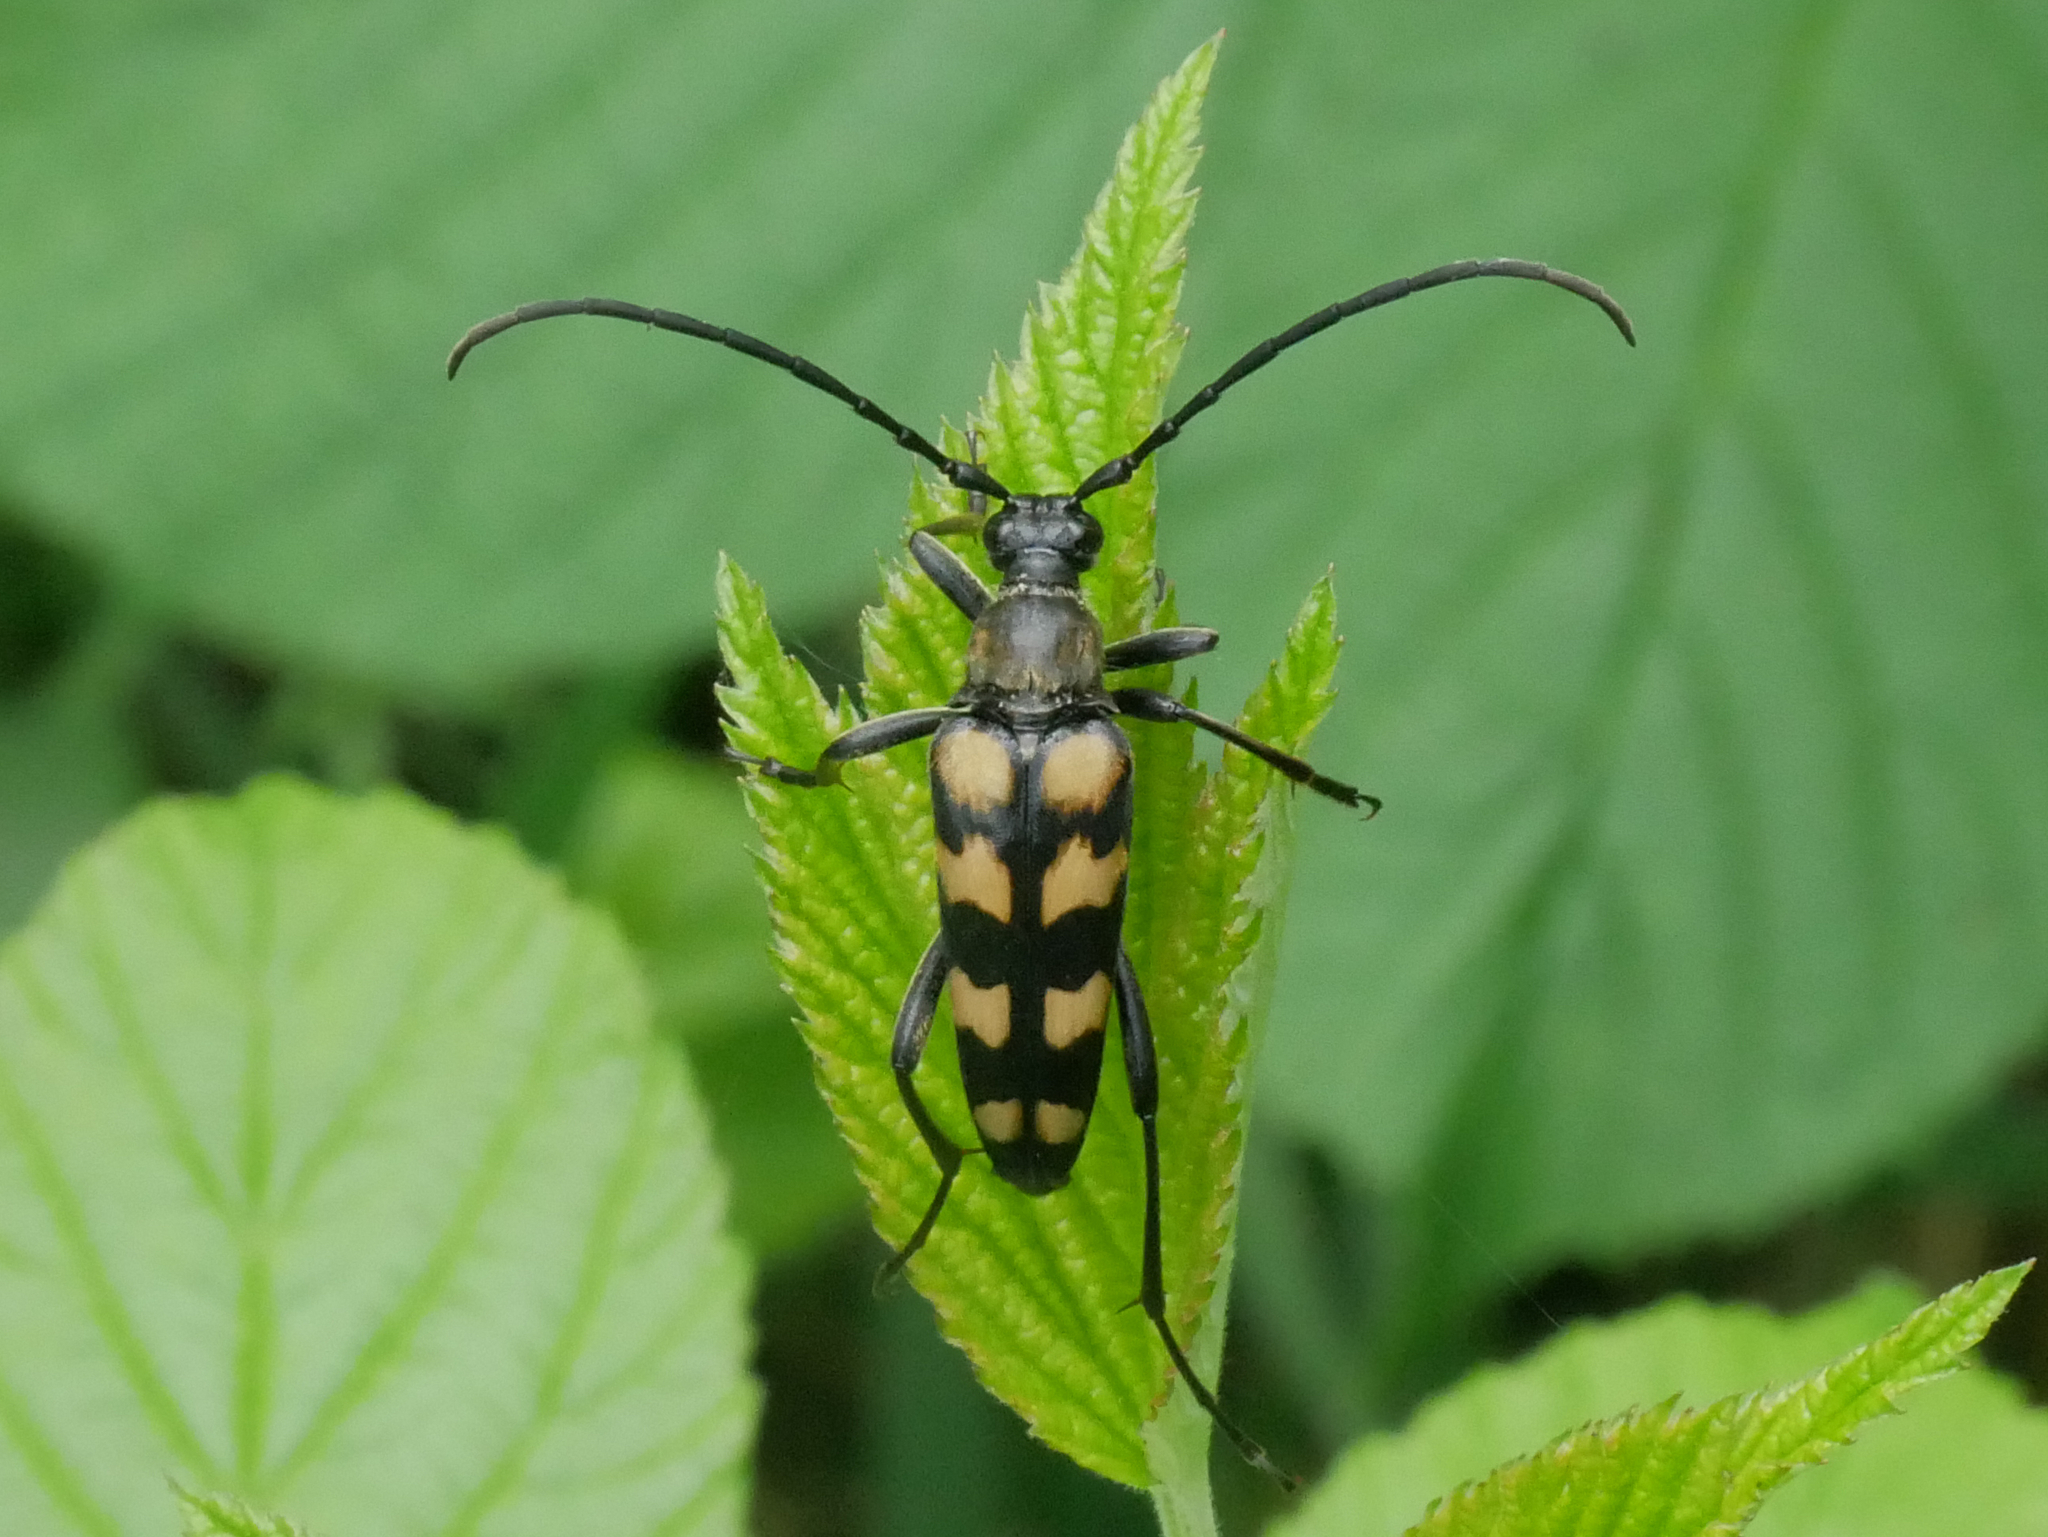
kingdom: Animalia
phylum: Arthropoda
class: Insecta
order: Coleoptera
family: Cerambycidae
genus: Leptura
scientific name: Leptura quadrifasciata
